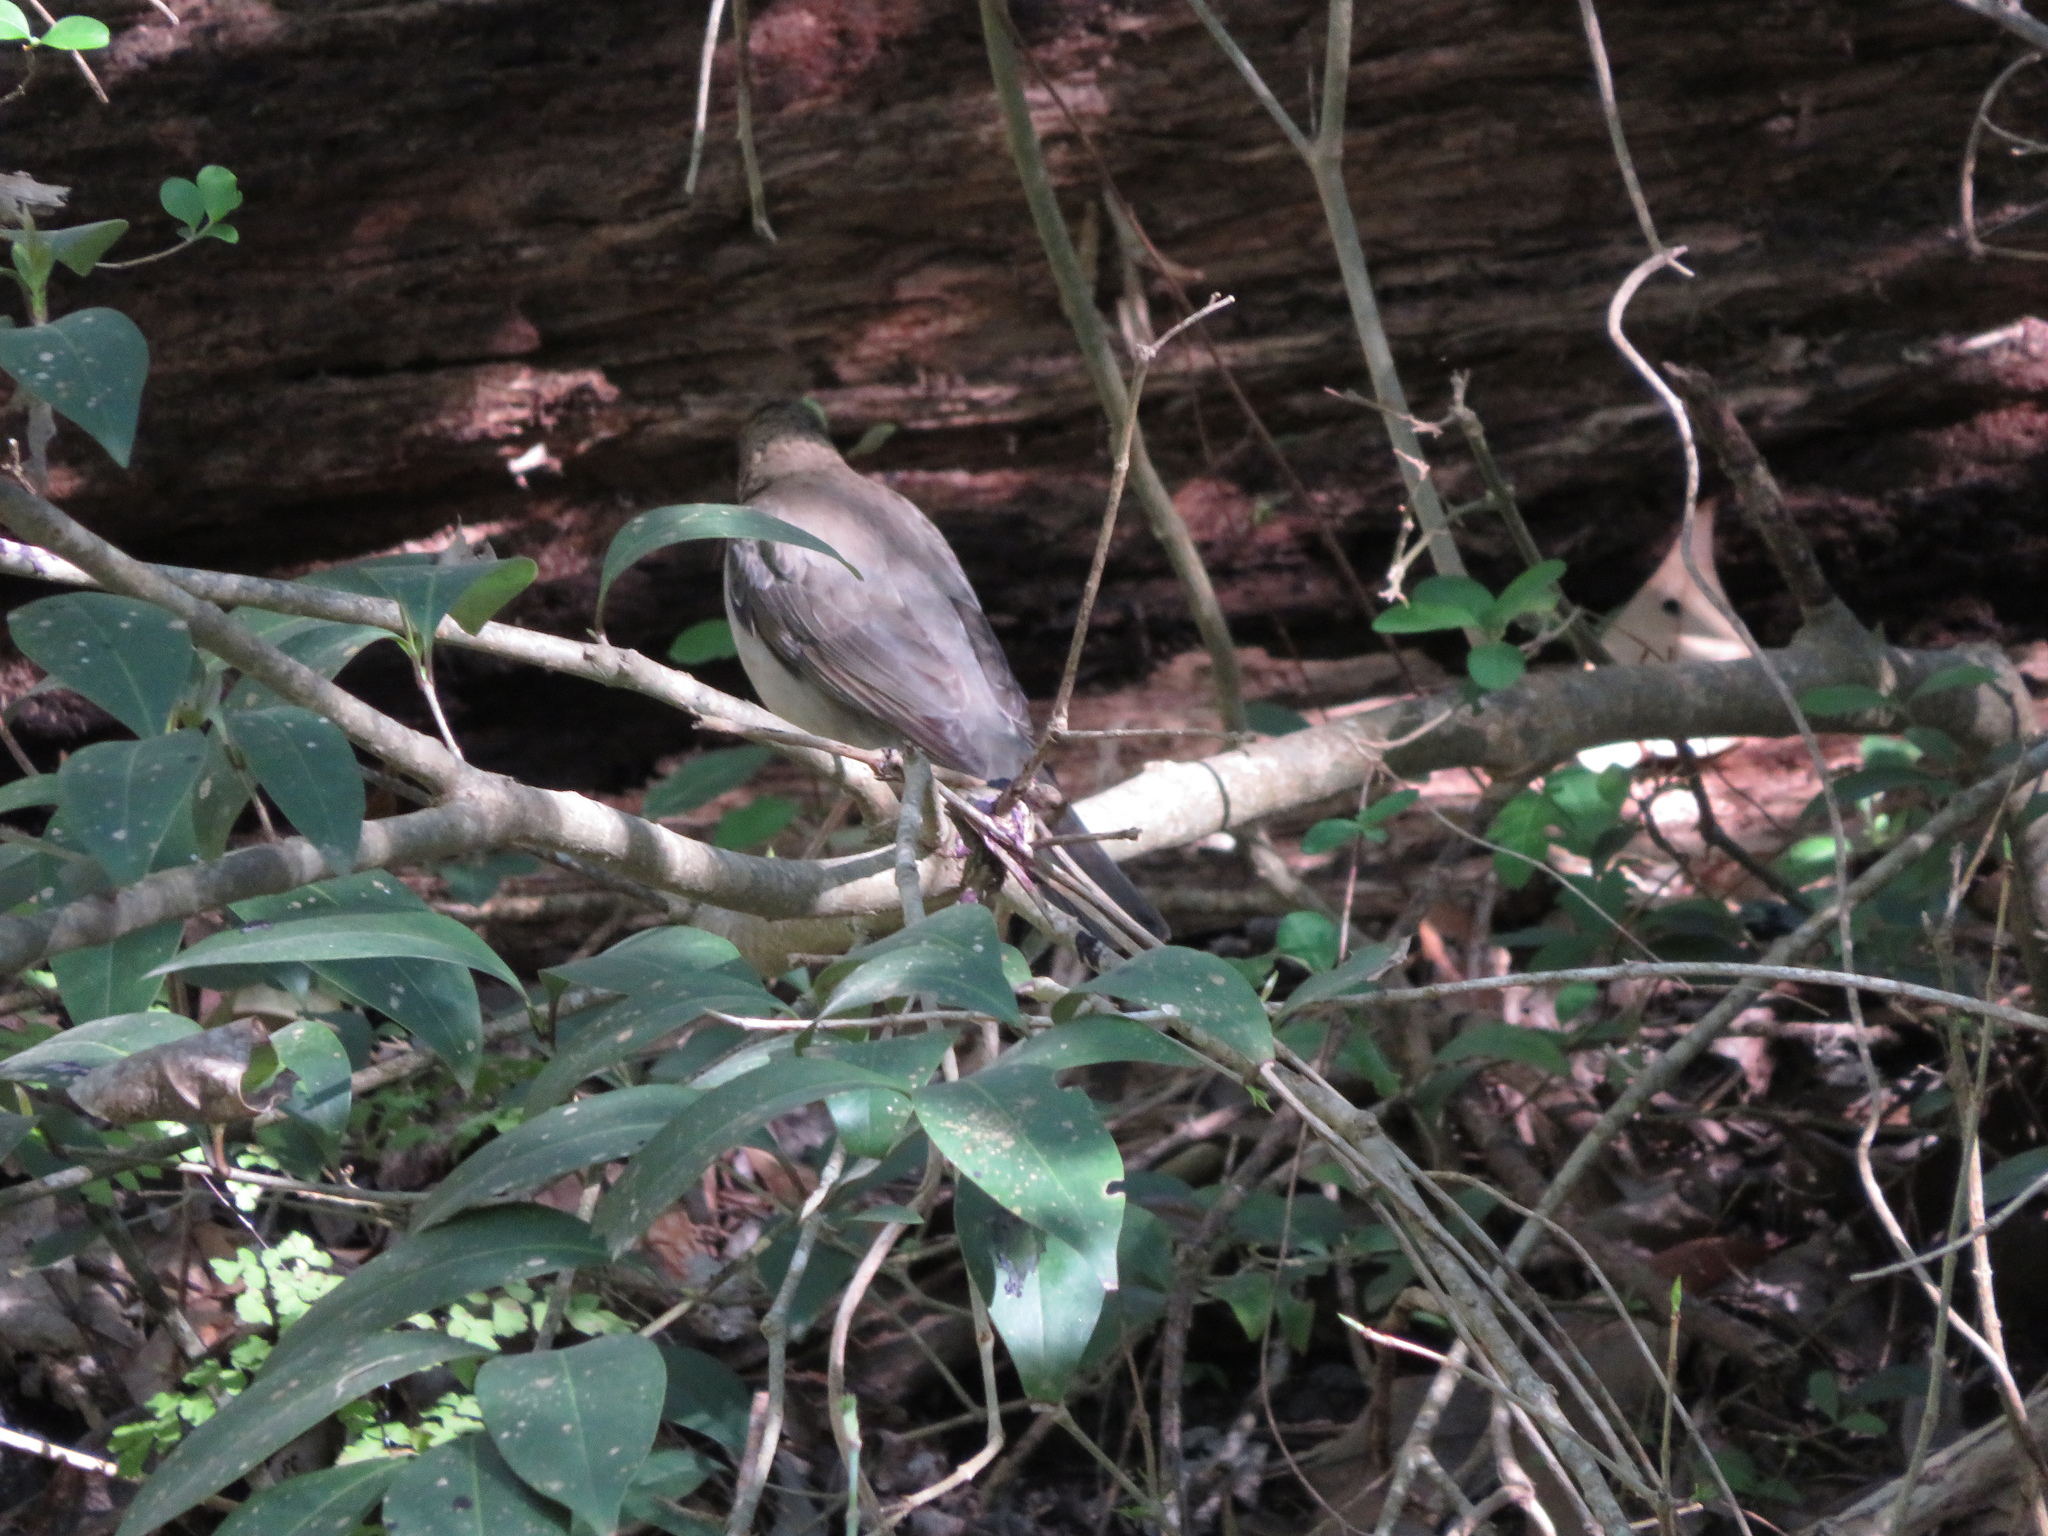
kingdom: Animalia
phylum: Chordata
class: Aves
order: Passeriformes
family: Turdidae
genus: Turdus
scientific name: Turdus amaurochalinus
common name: Creamy-bellied thrush
